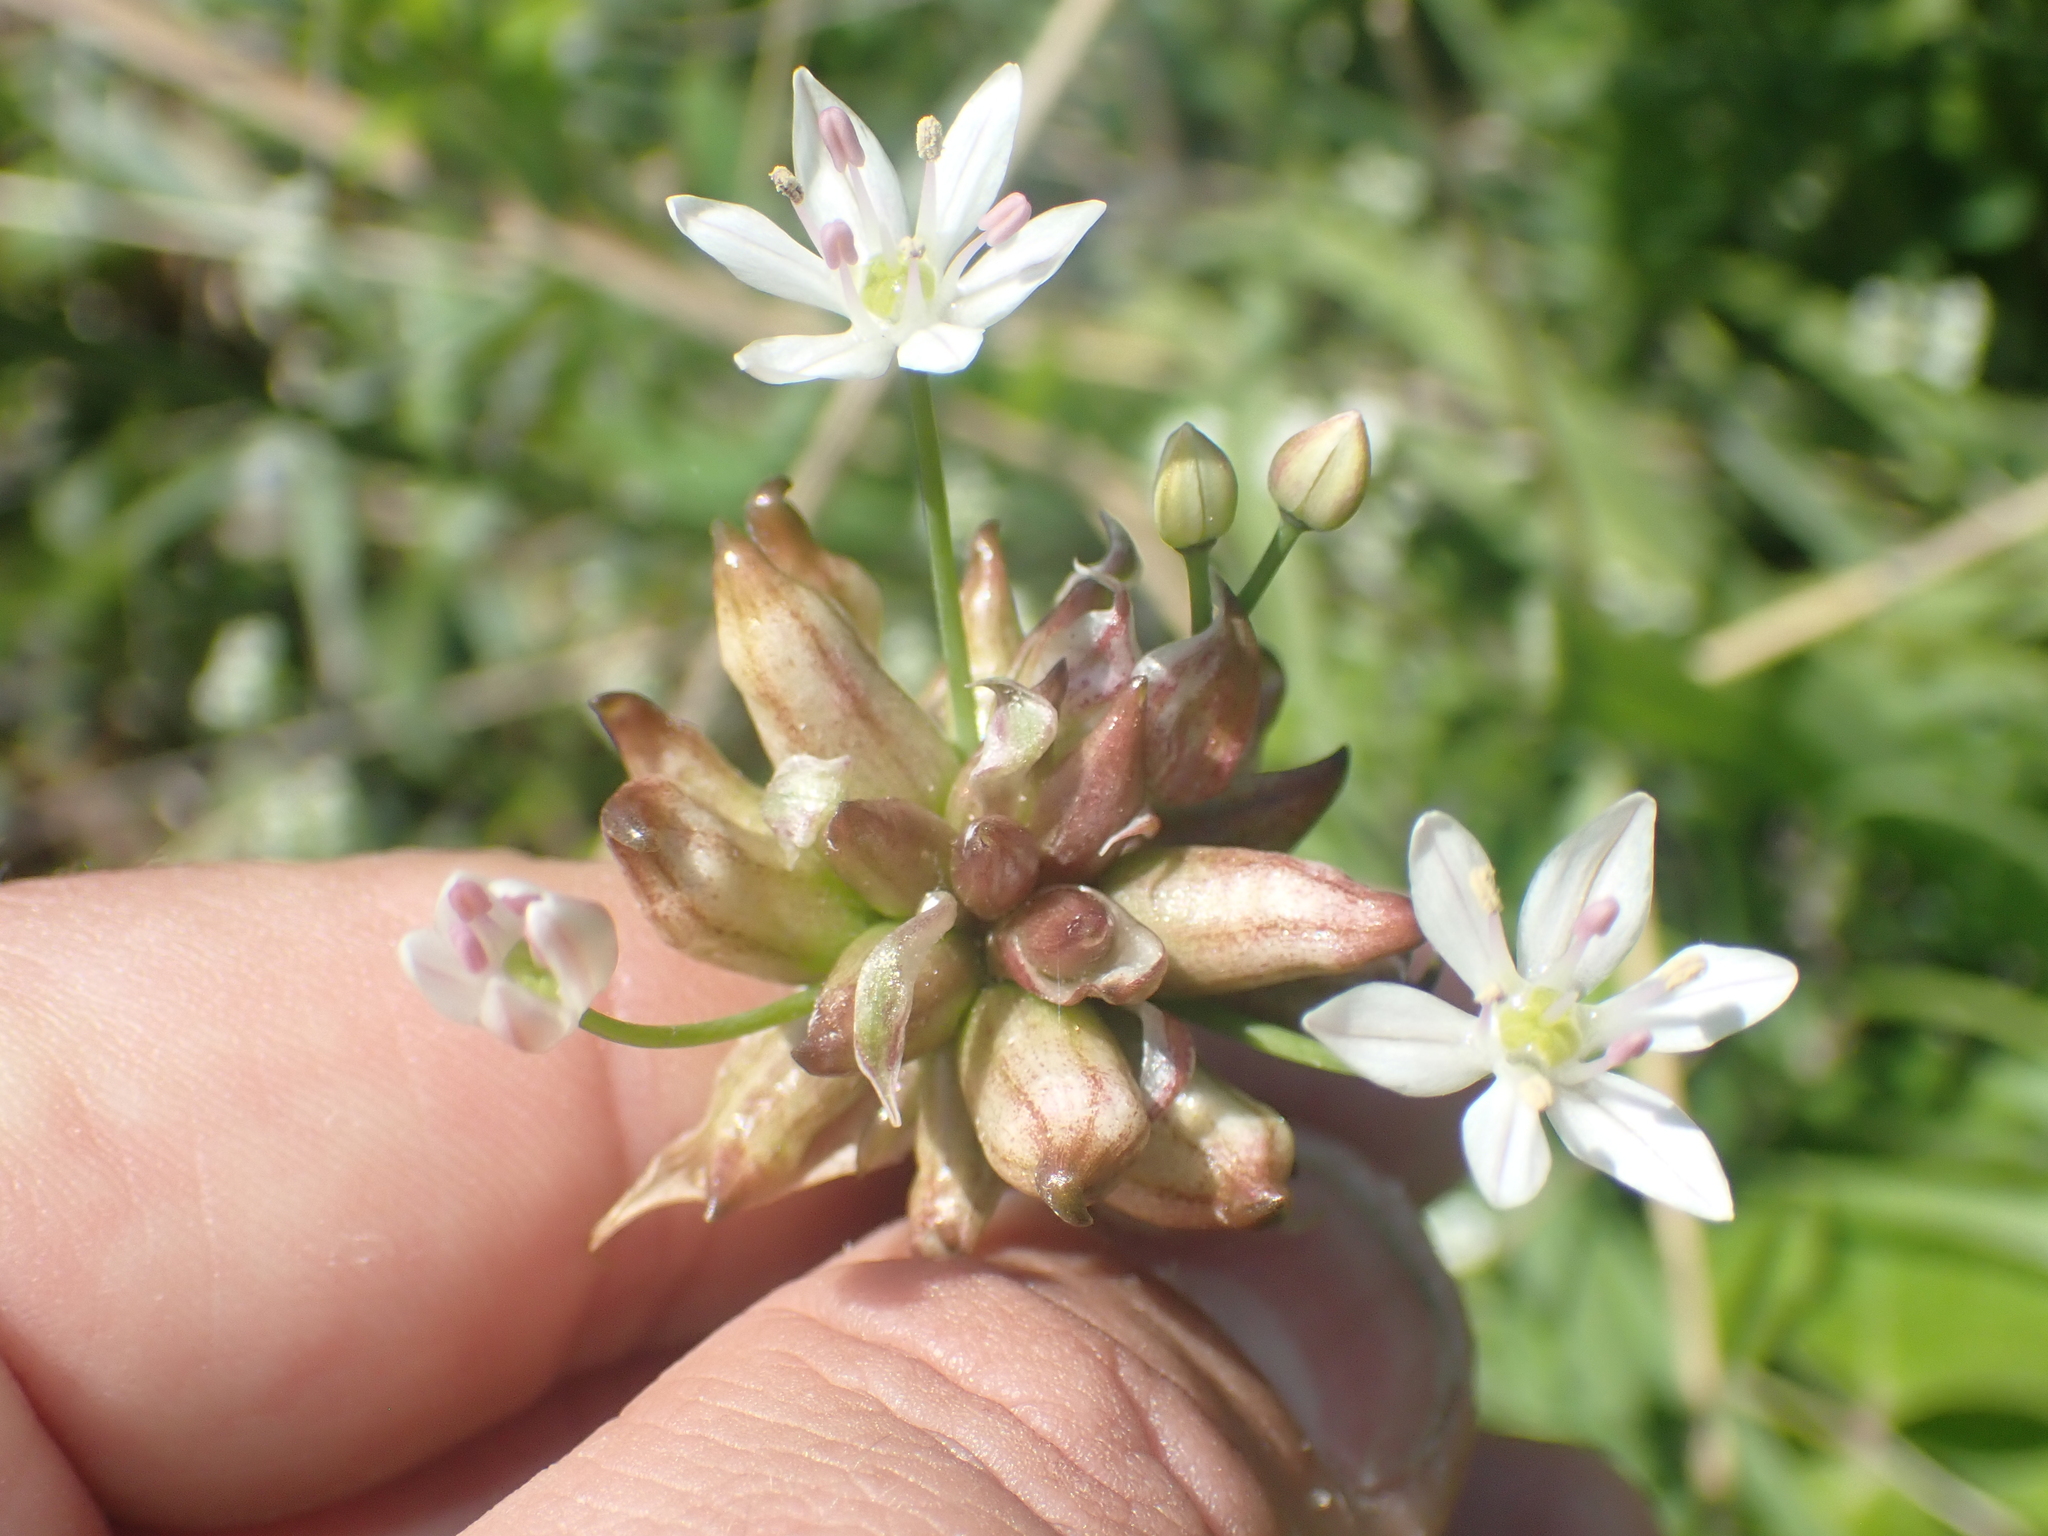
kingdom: Plantae
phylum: Tracheophyta
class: Liliopsida
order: Asparagales
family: Amaryllidaceae
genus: Allium
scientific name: Allium canadense
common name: Meadow garlic
